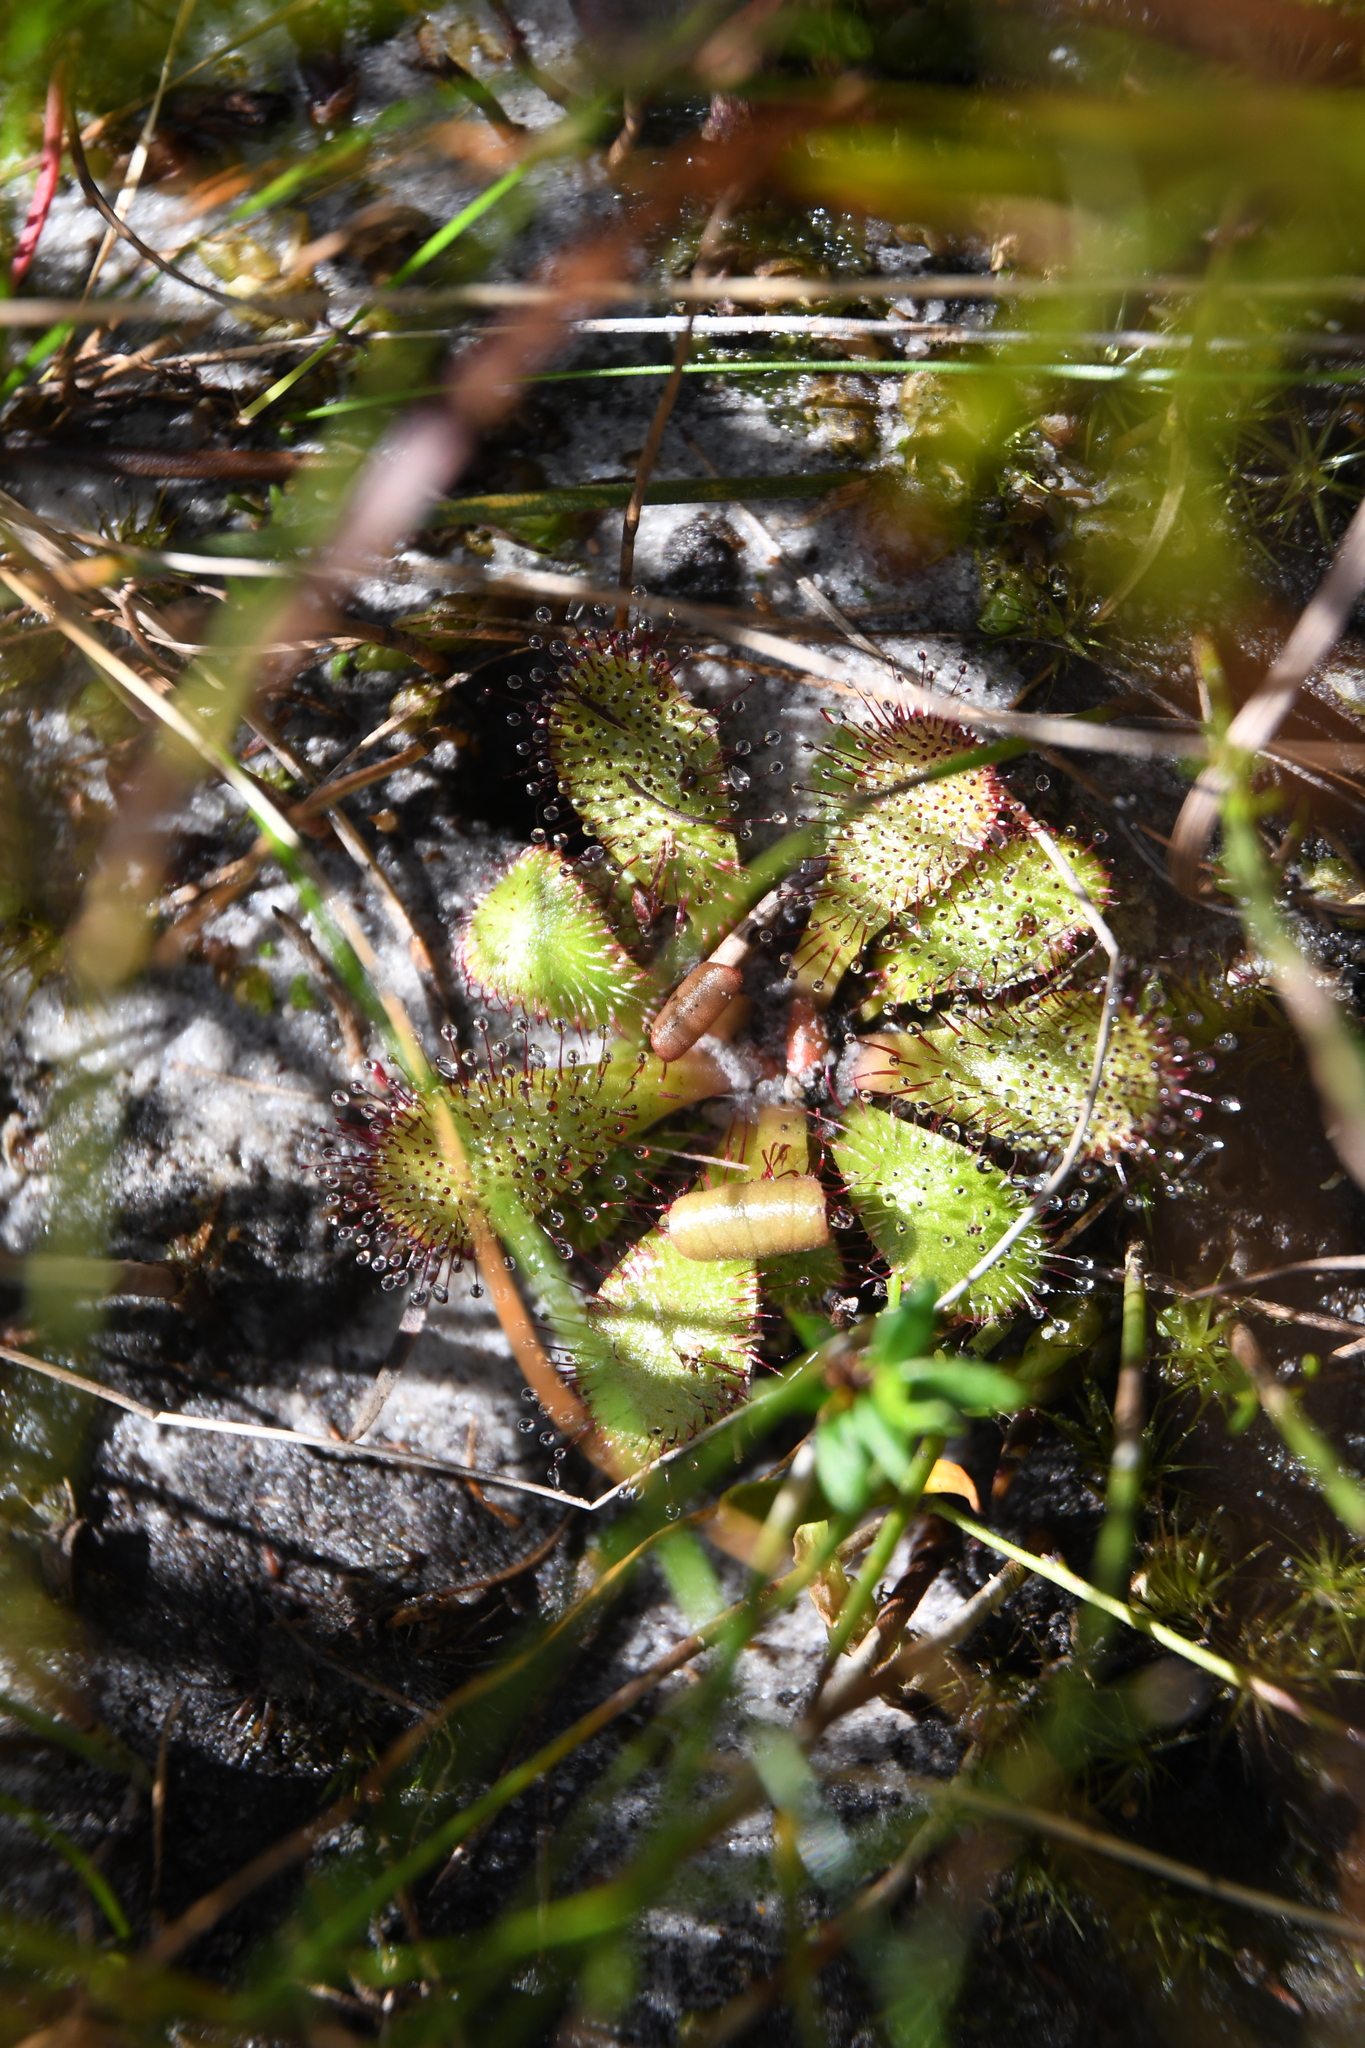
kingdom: Plantae
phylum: Tracheophyta
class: Magnoliopsida
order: Caryophyllales
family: Droseraceae
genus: Drosera
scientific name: Drosera hamiltonii
